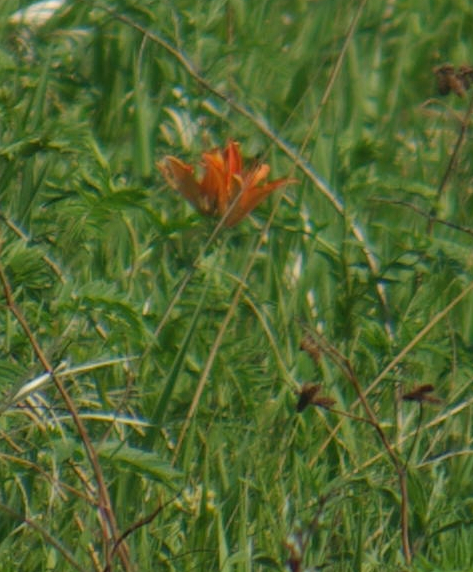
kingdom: Plantae
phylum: Tracheophyta
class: Liliopsida
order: Liliales
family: Liliaceae
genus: Lilium
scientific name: Lilium philadelphicum
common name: Red lily
